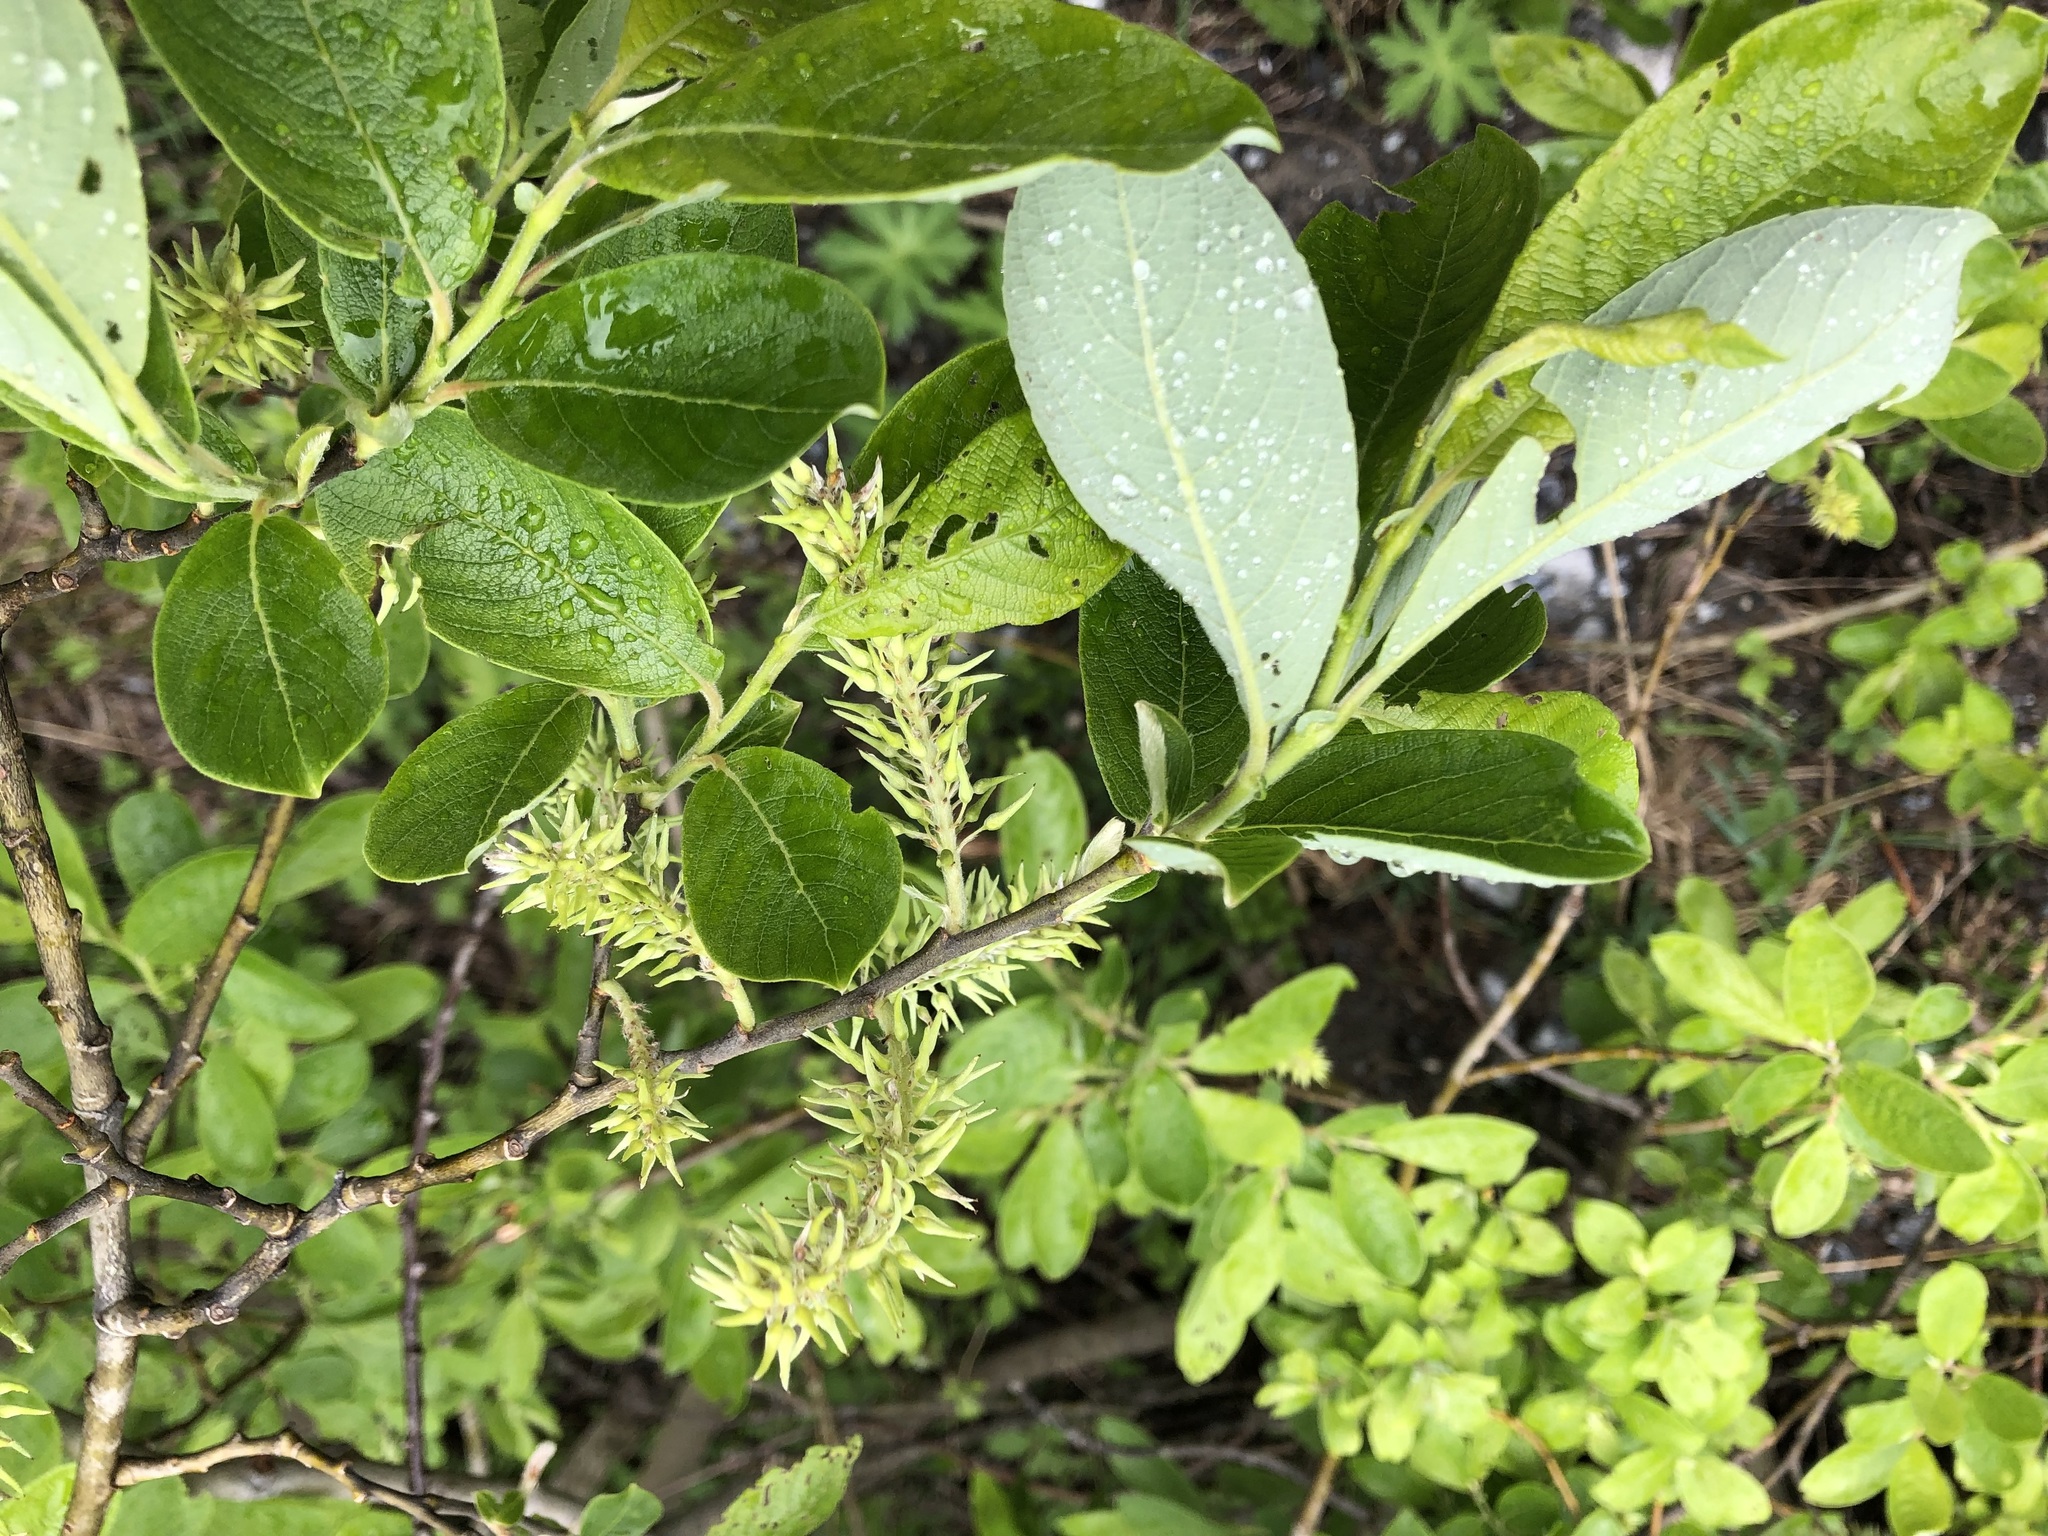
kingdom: Plantae
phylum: Tracheophyta
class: Magnoliopsida
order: Malpighiales
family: Salicaceae
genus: Salix
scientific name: Salix caprea
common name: Goat willow
